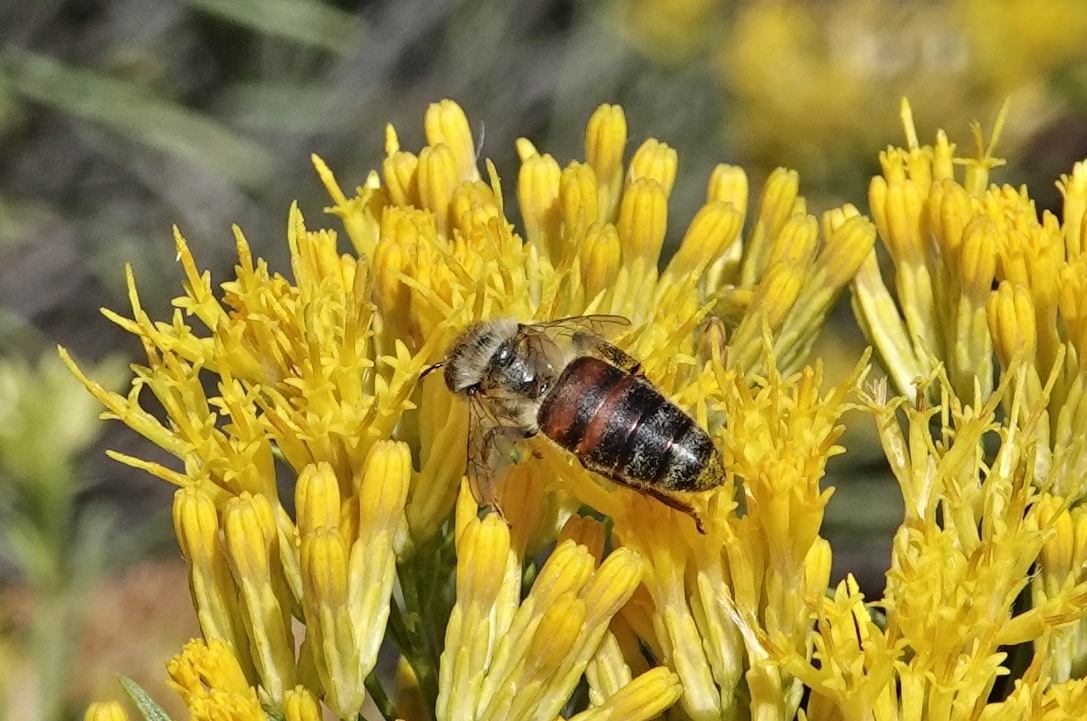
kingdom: Animalia
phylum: Arthropoda
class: Insecta
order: Hymenoptera
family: Apidae
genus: Apis
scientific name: Apis mellifera
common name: Honey bee
